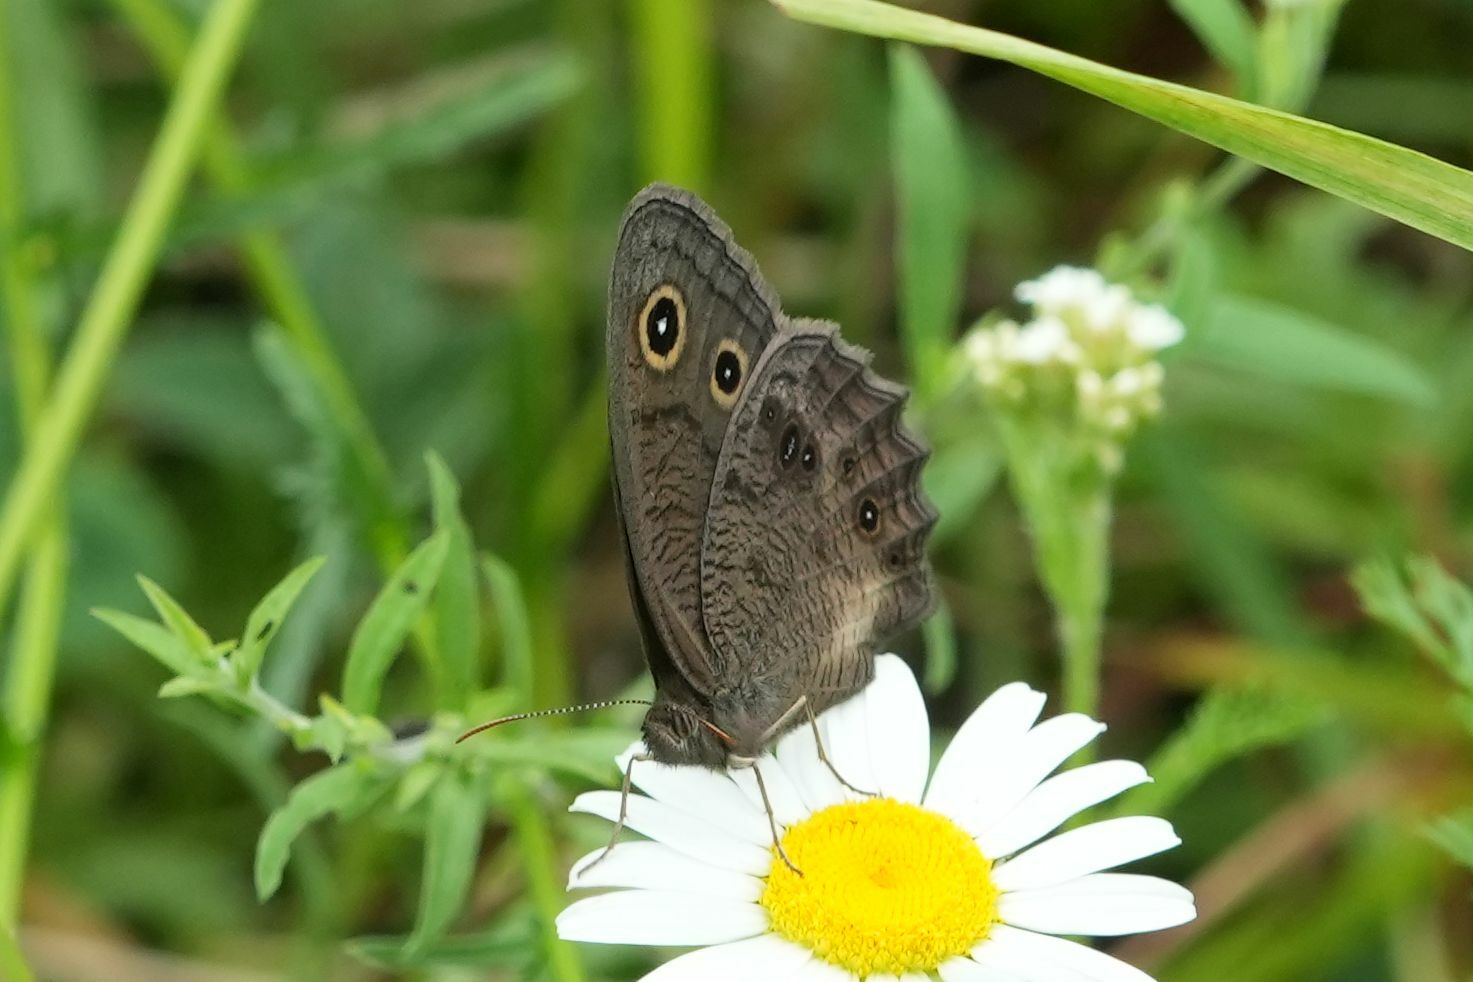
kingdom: Animalia
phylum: Arthropoda
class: Insecta
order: Lepidoptera
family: Nymphalidae
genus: Cercyonis
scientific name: Cercyonis pegala
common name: Common wood-nymph
